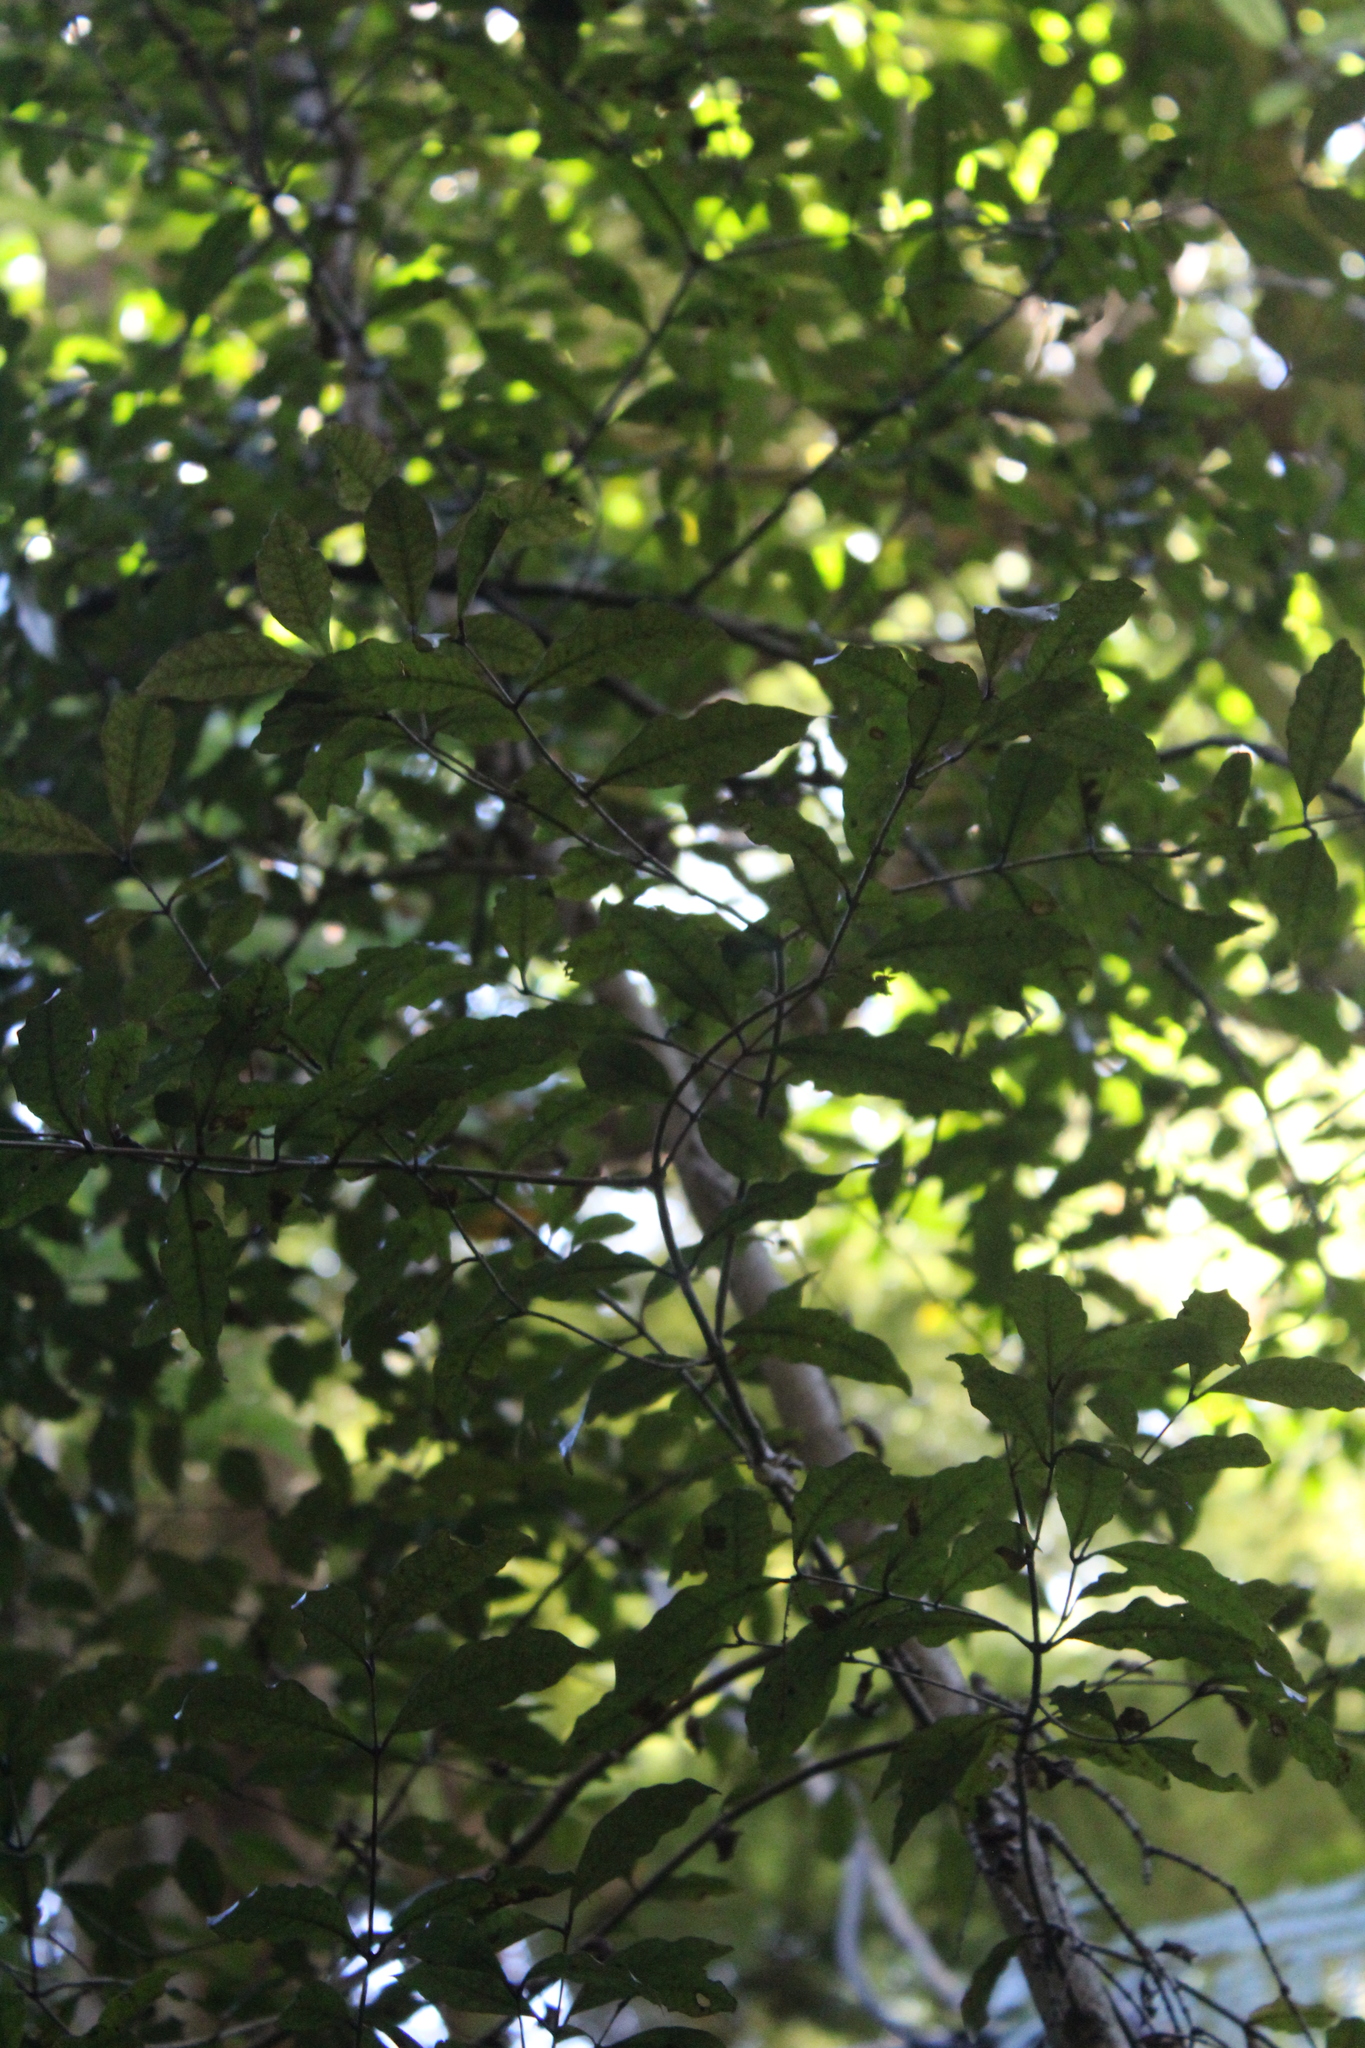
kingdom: Plantae
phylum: Tracheophyta
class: Magnoliopsida
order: Myrtales
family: Myrtaceae
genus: Syzygium
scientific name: Syzygium maire
